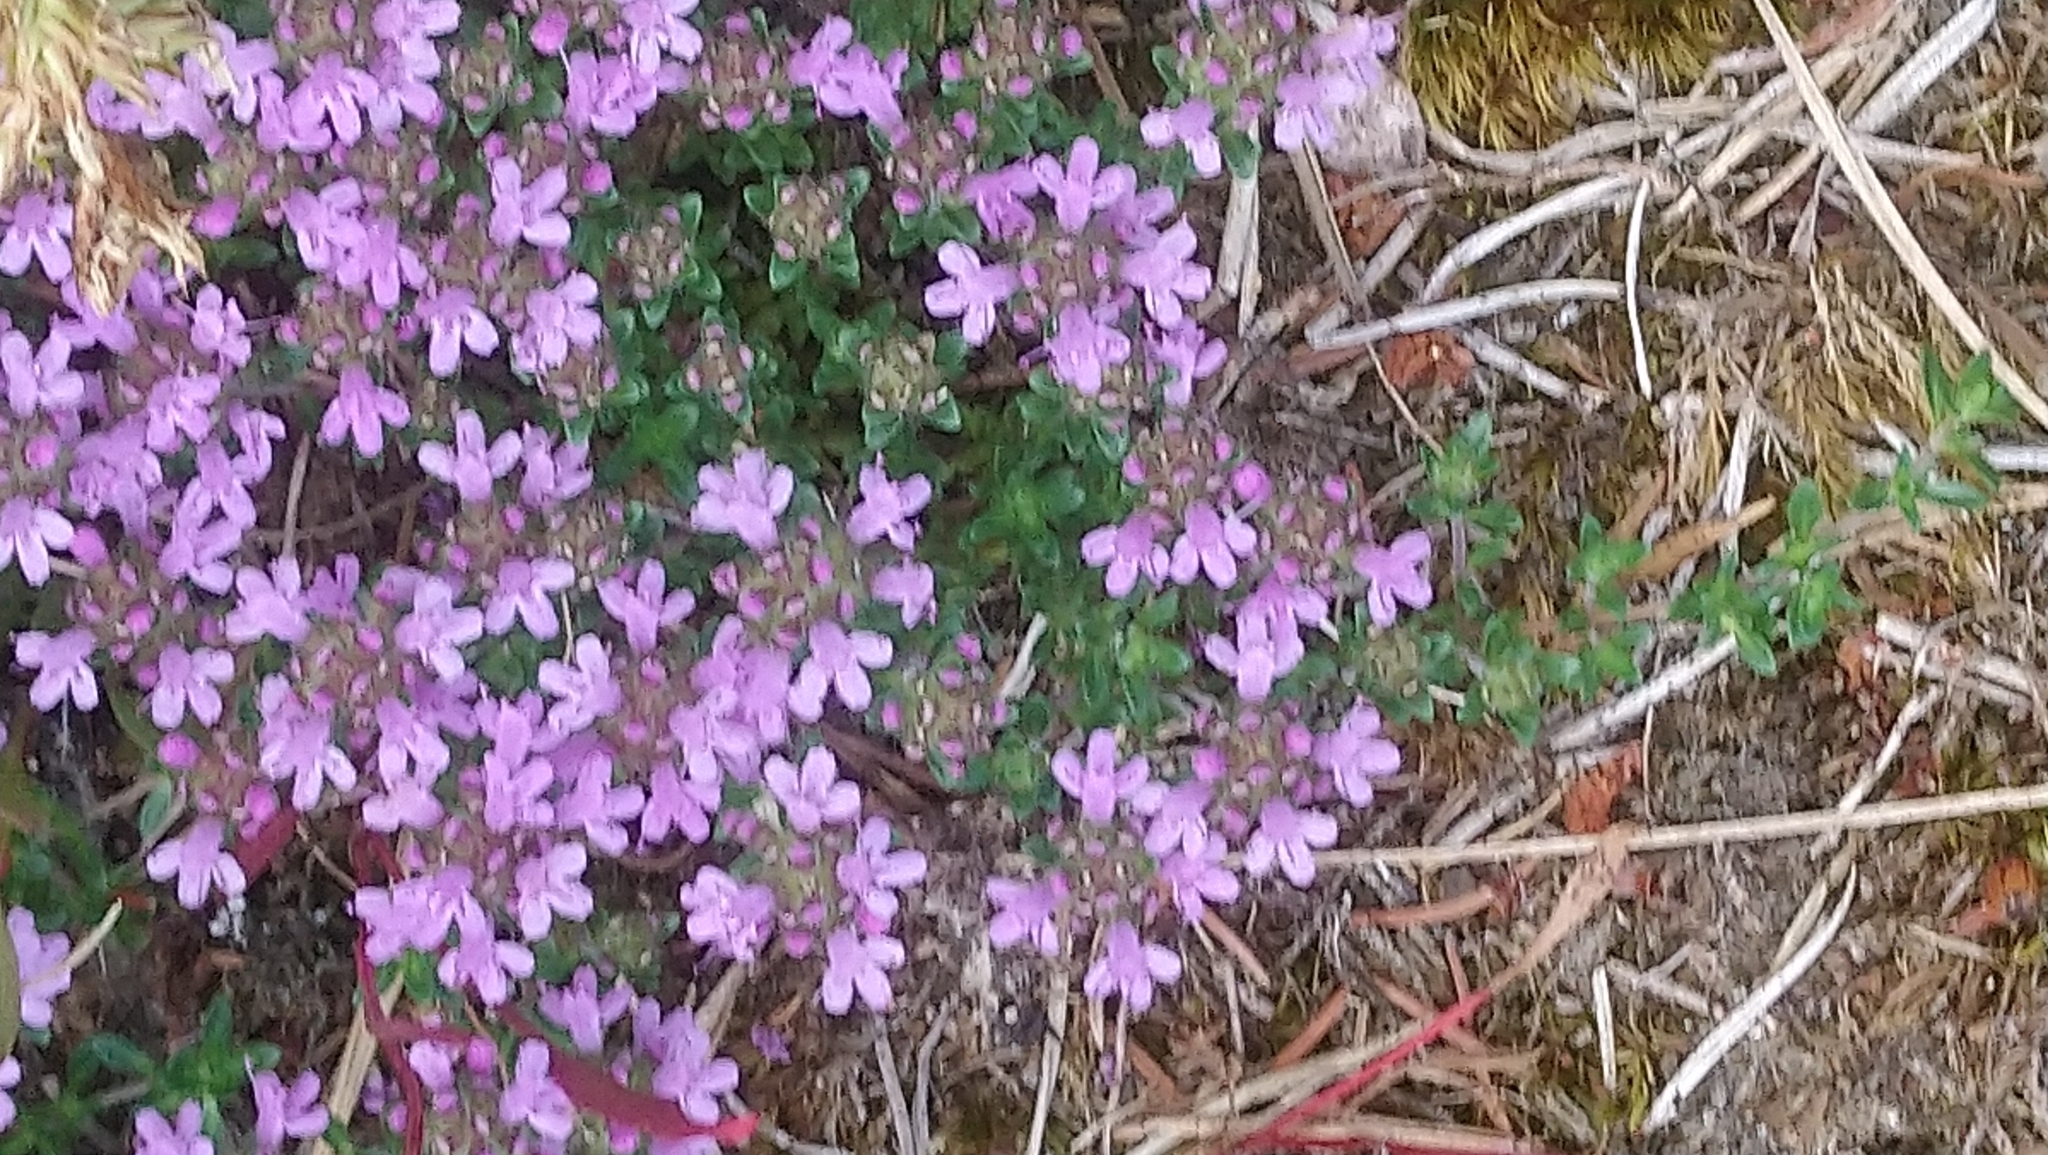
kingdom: Plantae
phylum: Tracheophyta
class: Magnoliopsida
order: Lamiales
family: Lamiaceae
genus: Thymus
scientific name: Thymus serpyllum
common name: Breckland thyme
